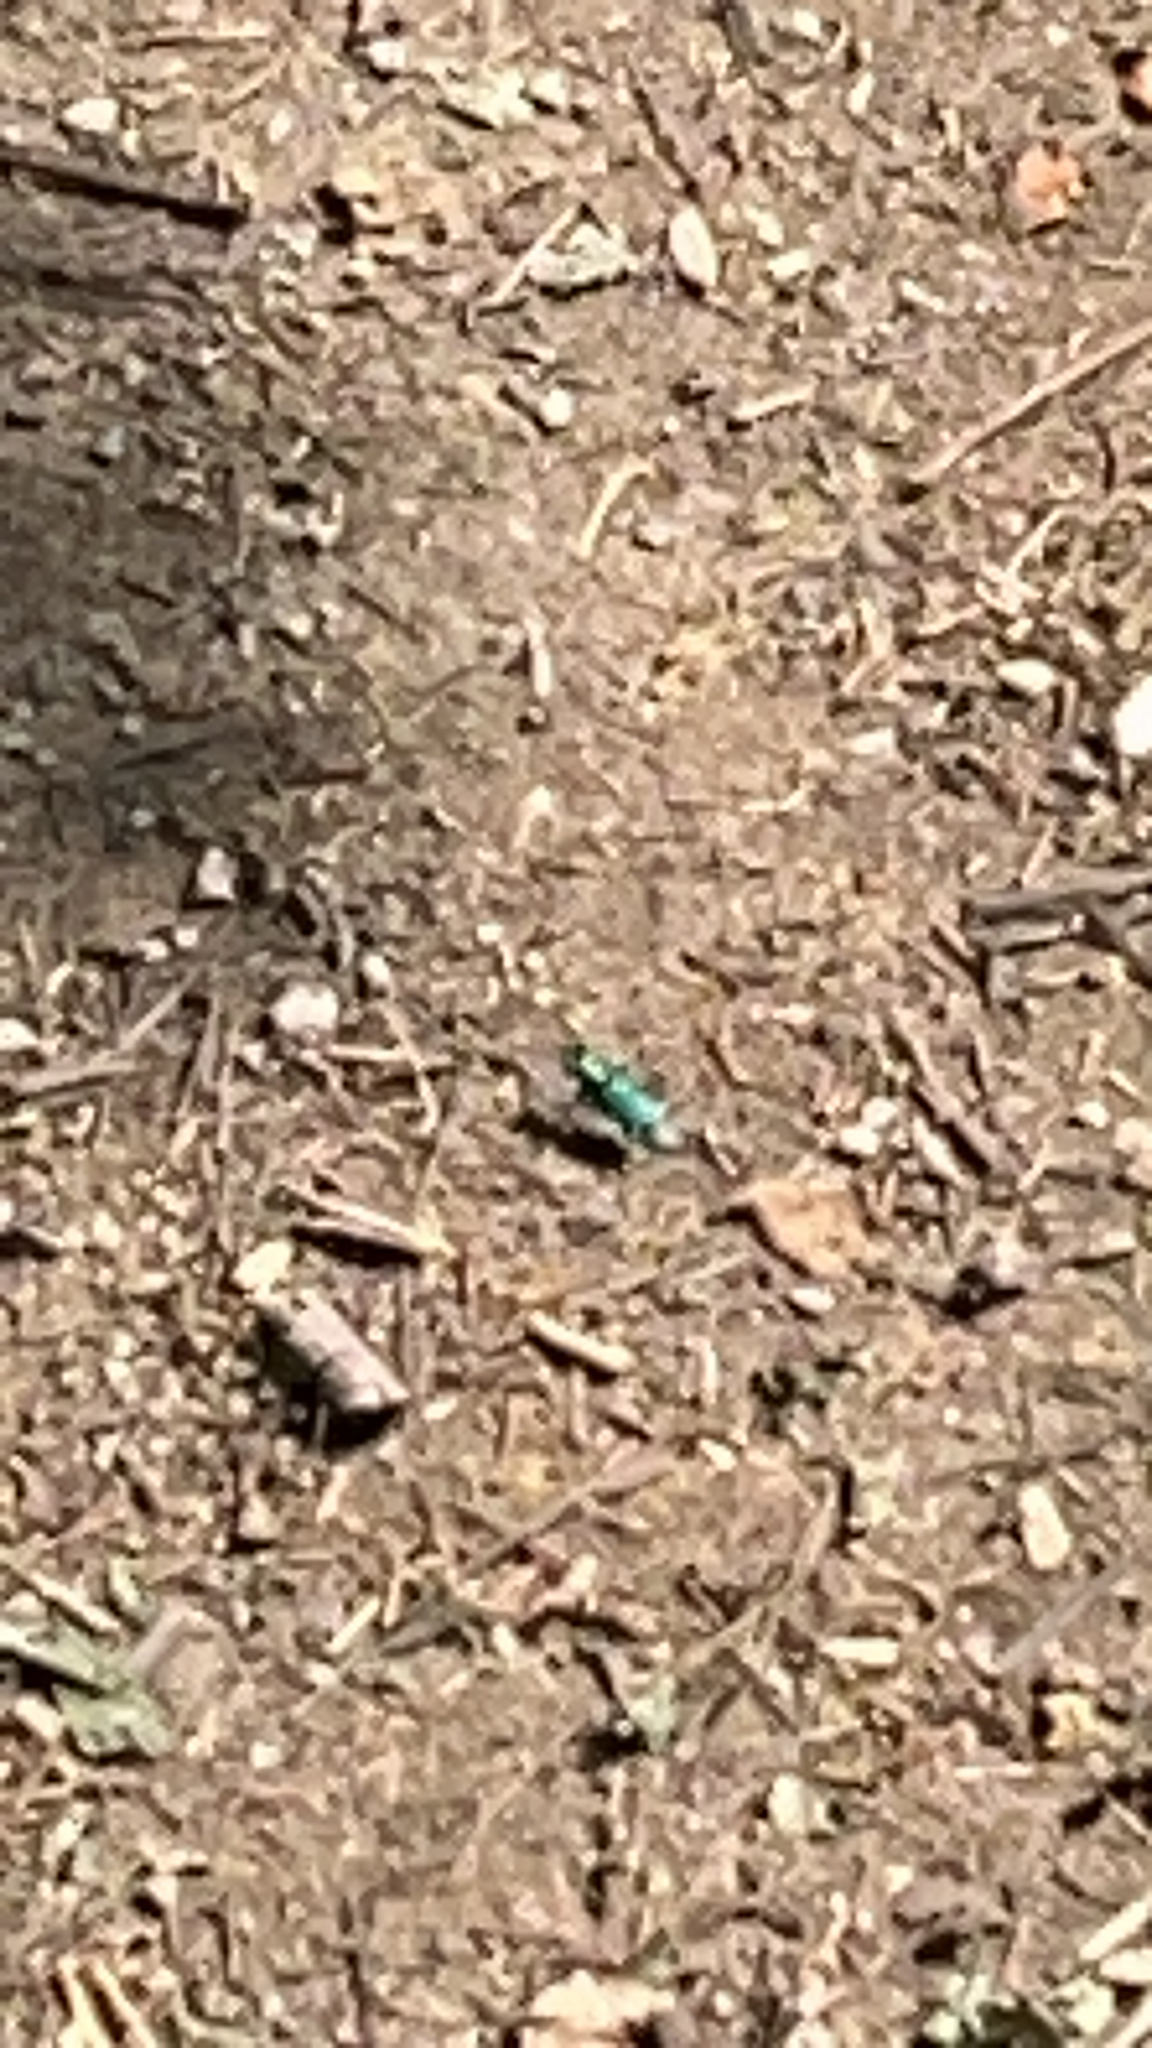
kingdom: Animalia
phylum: Arthropoda
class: Insecta
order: Coleoptera
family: Carabidae
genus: Cicindela
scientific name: Cicindela sexguttata
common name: Six-spotted tiger beetle
